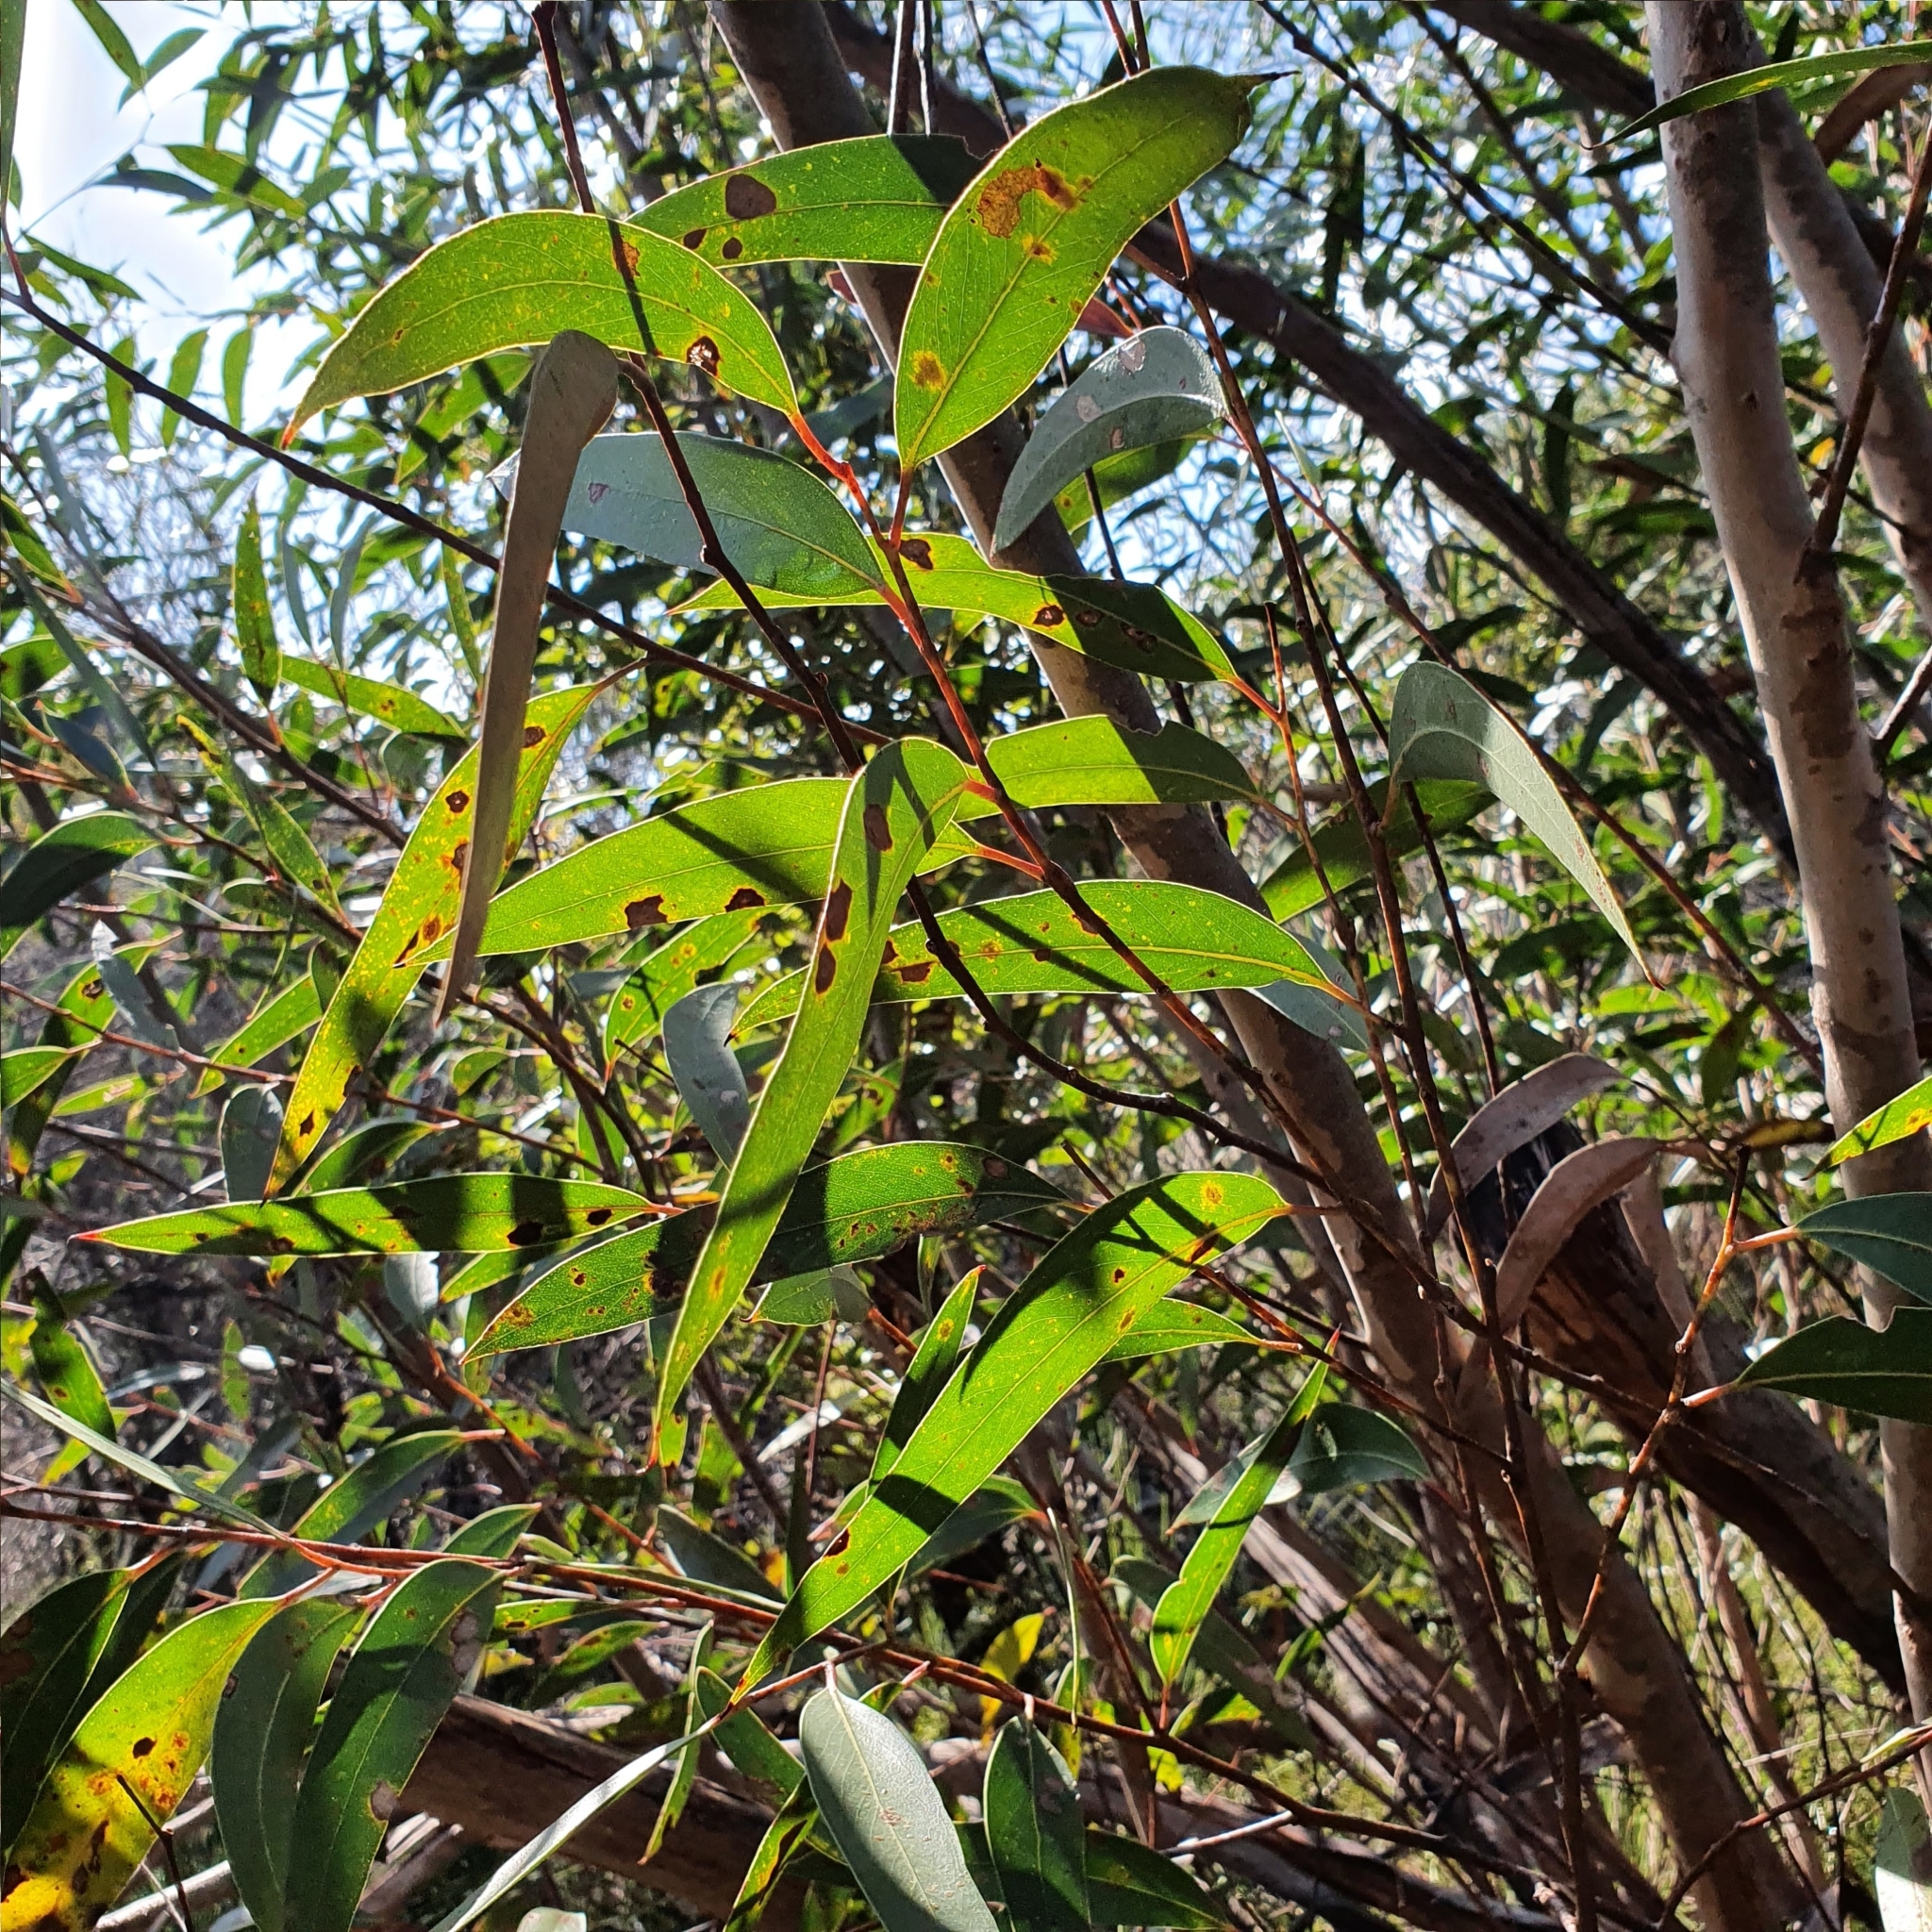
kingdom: Plantae
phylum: Tracheophyta
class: Magnoliopsida
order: Myrtales
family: Myrtaceae
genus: Eucalyptus
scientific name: Eucalyptus burgessiana
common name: Falconbridge mallee-ash
